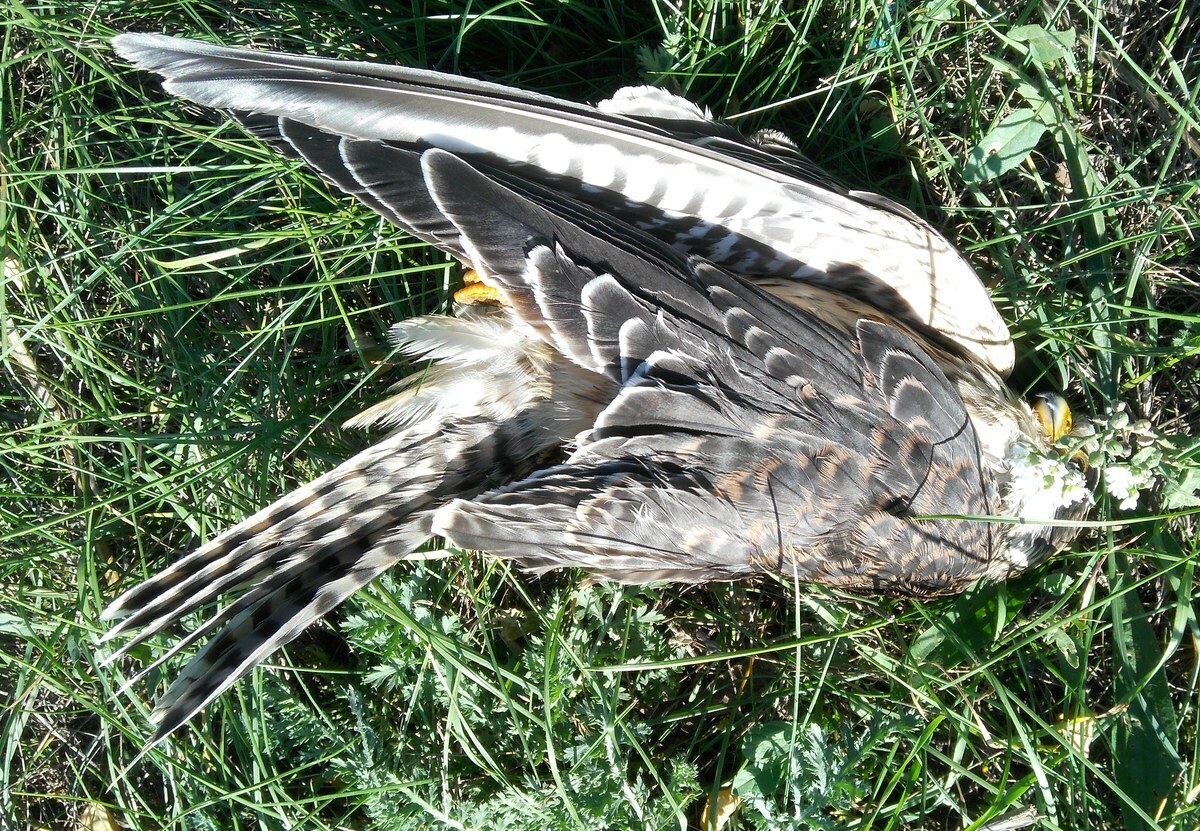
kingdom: Animalia
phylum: Chordata
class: Aves
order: Falconiformes
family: Falconidae
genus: Falco
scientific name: Falco vespertinus
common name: Red-footed falcon
